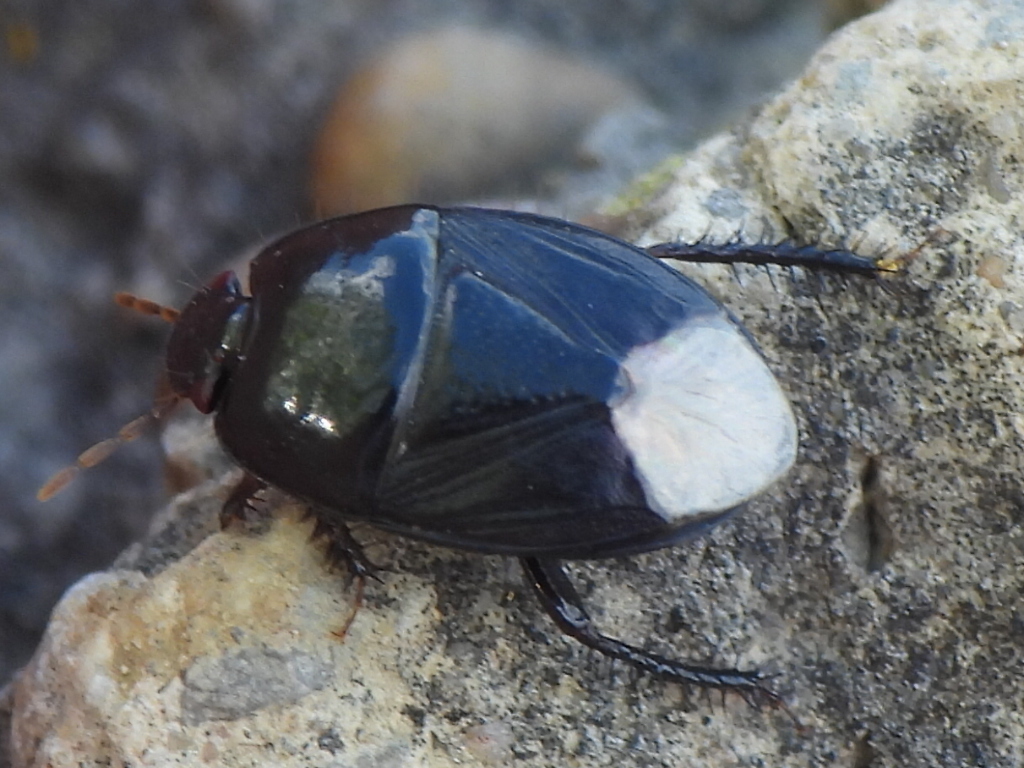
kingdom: Animalia
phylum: Arthropoda
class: Insecta
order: Hemiptera
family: Cydnidae
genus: Pangaeus
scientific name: Pangaeus bilineatus
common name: Burrower bug
